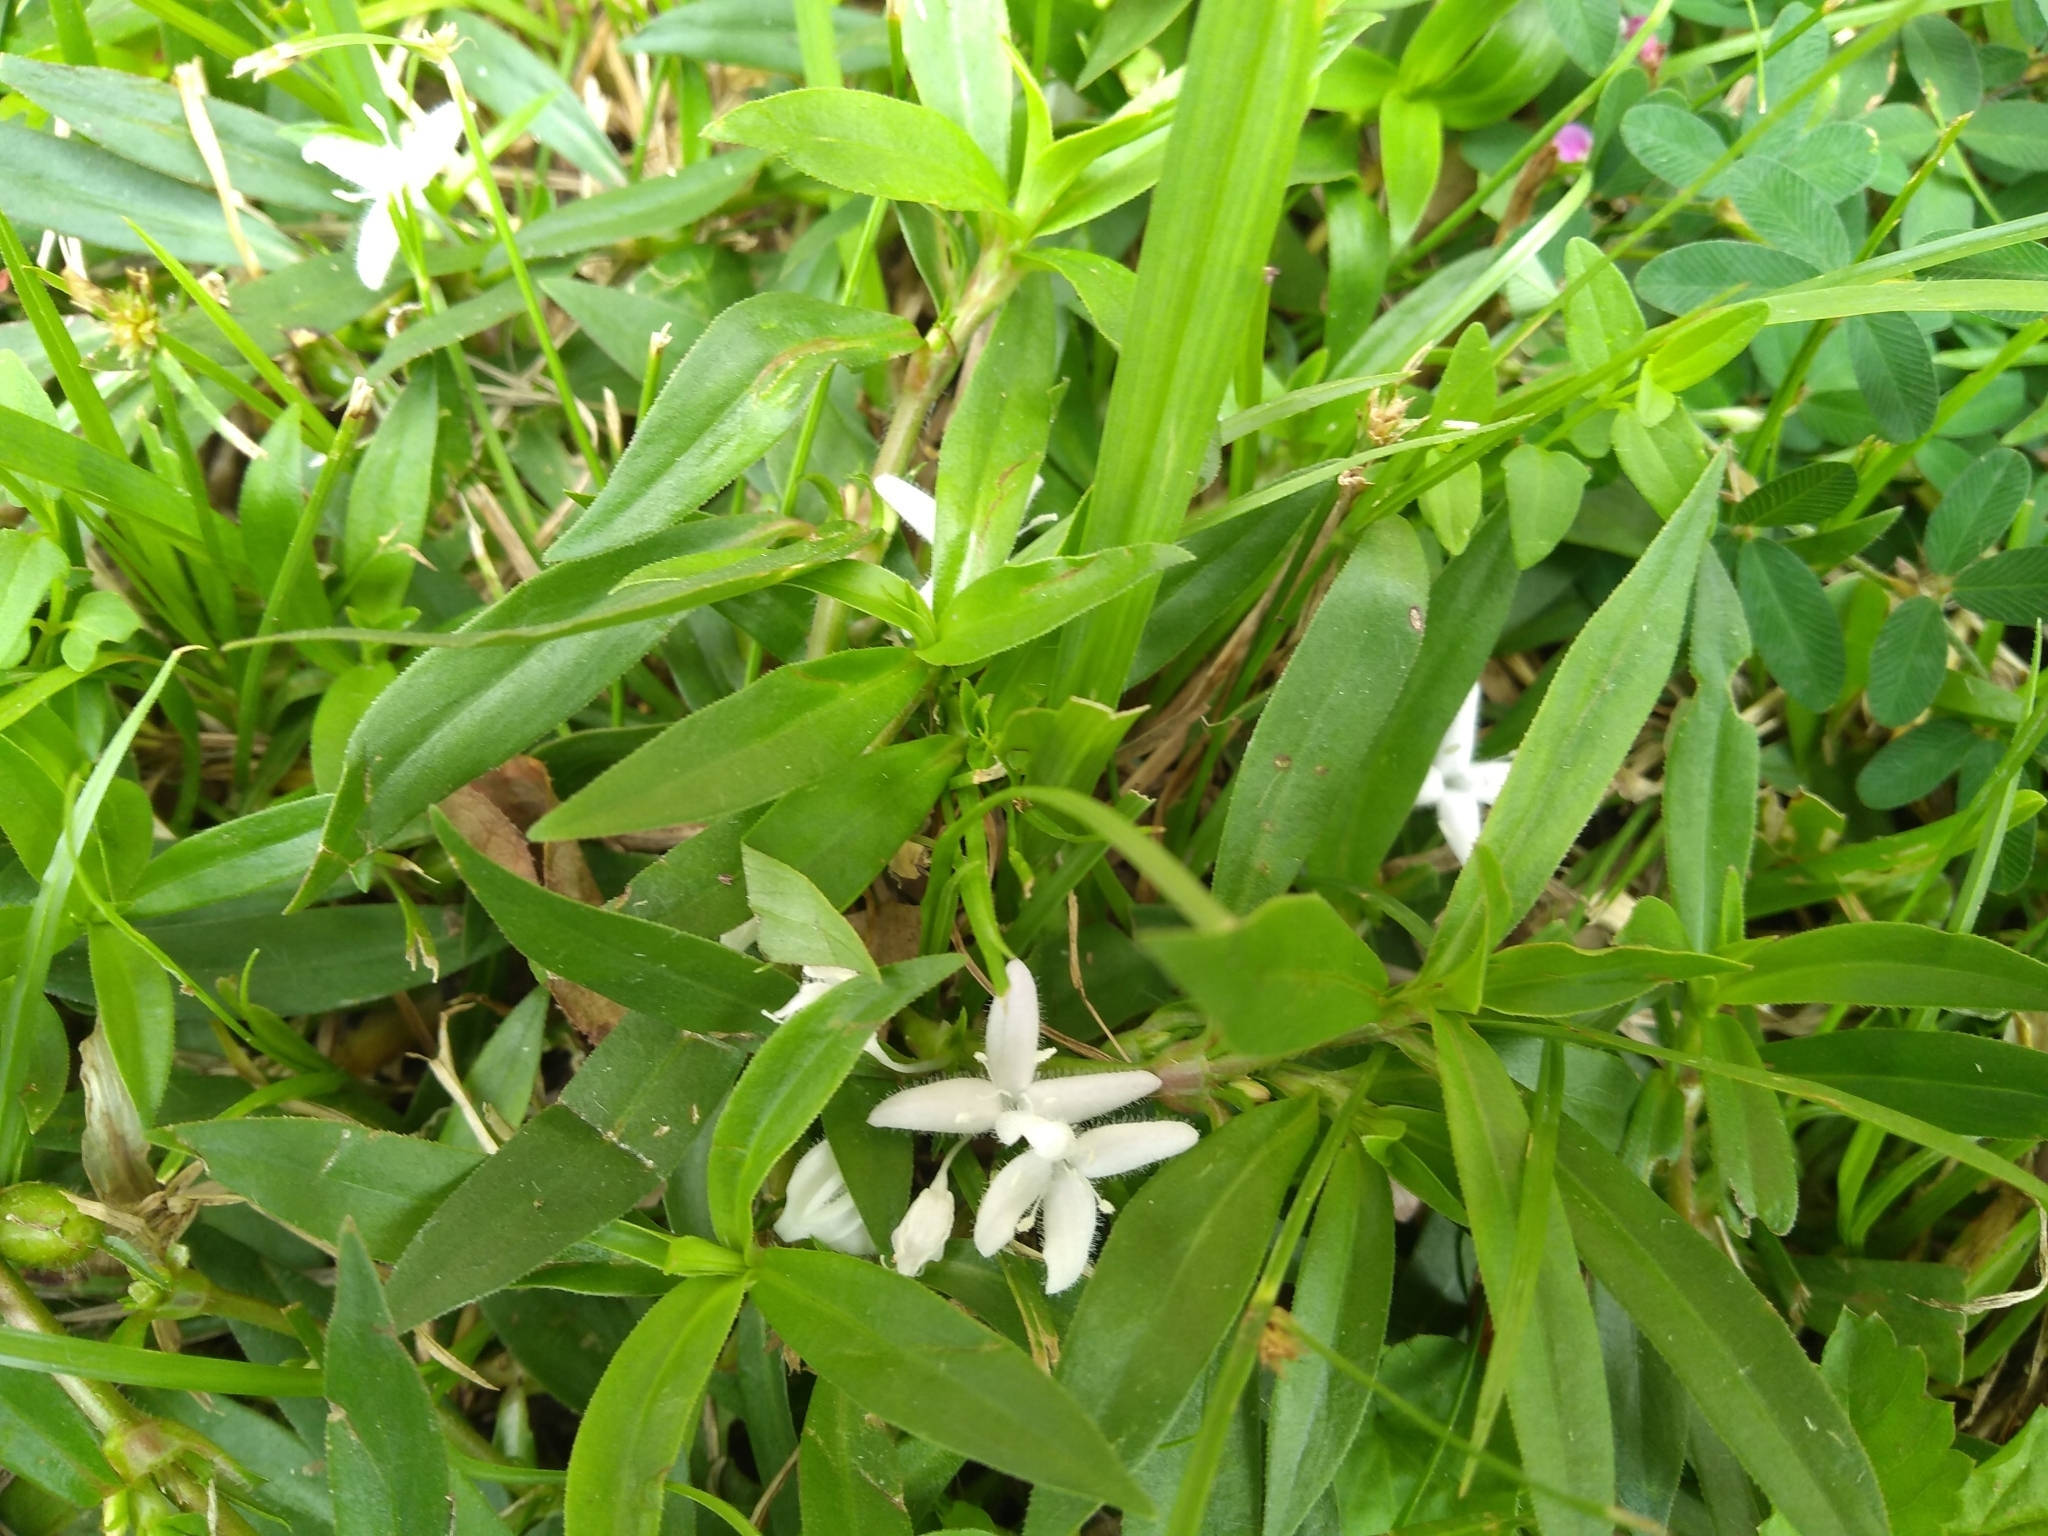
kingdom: Plantae
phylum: Tracheophyta
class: Magnoliopsida
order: Gentianales
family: Rubiaceae
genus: Diodia
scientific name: Diodia virginiana
